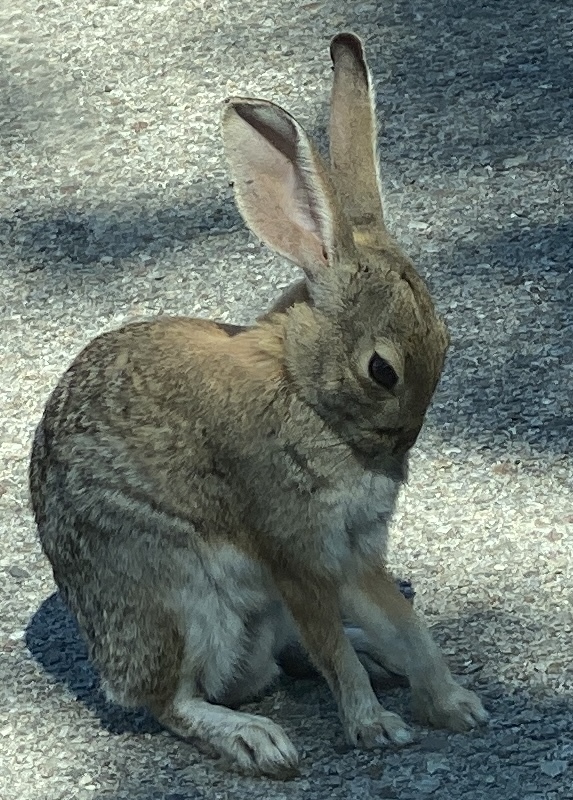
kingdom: Animalia
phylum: Chordata
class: Mammalia
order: Lagomorpha
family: Leporidae
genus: Sylvilagus
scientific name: Sylvilagus audubonii
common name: Desert cottontail
